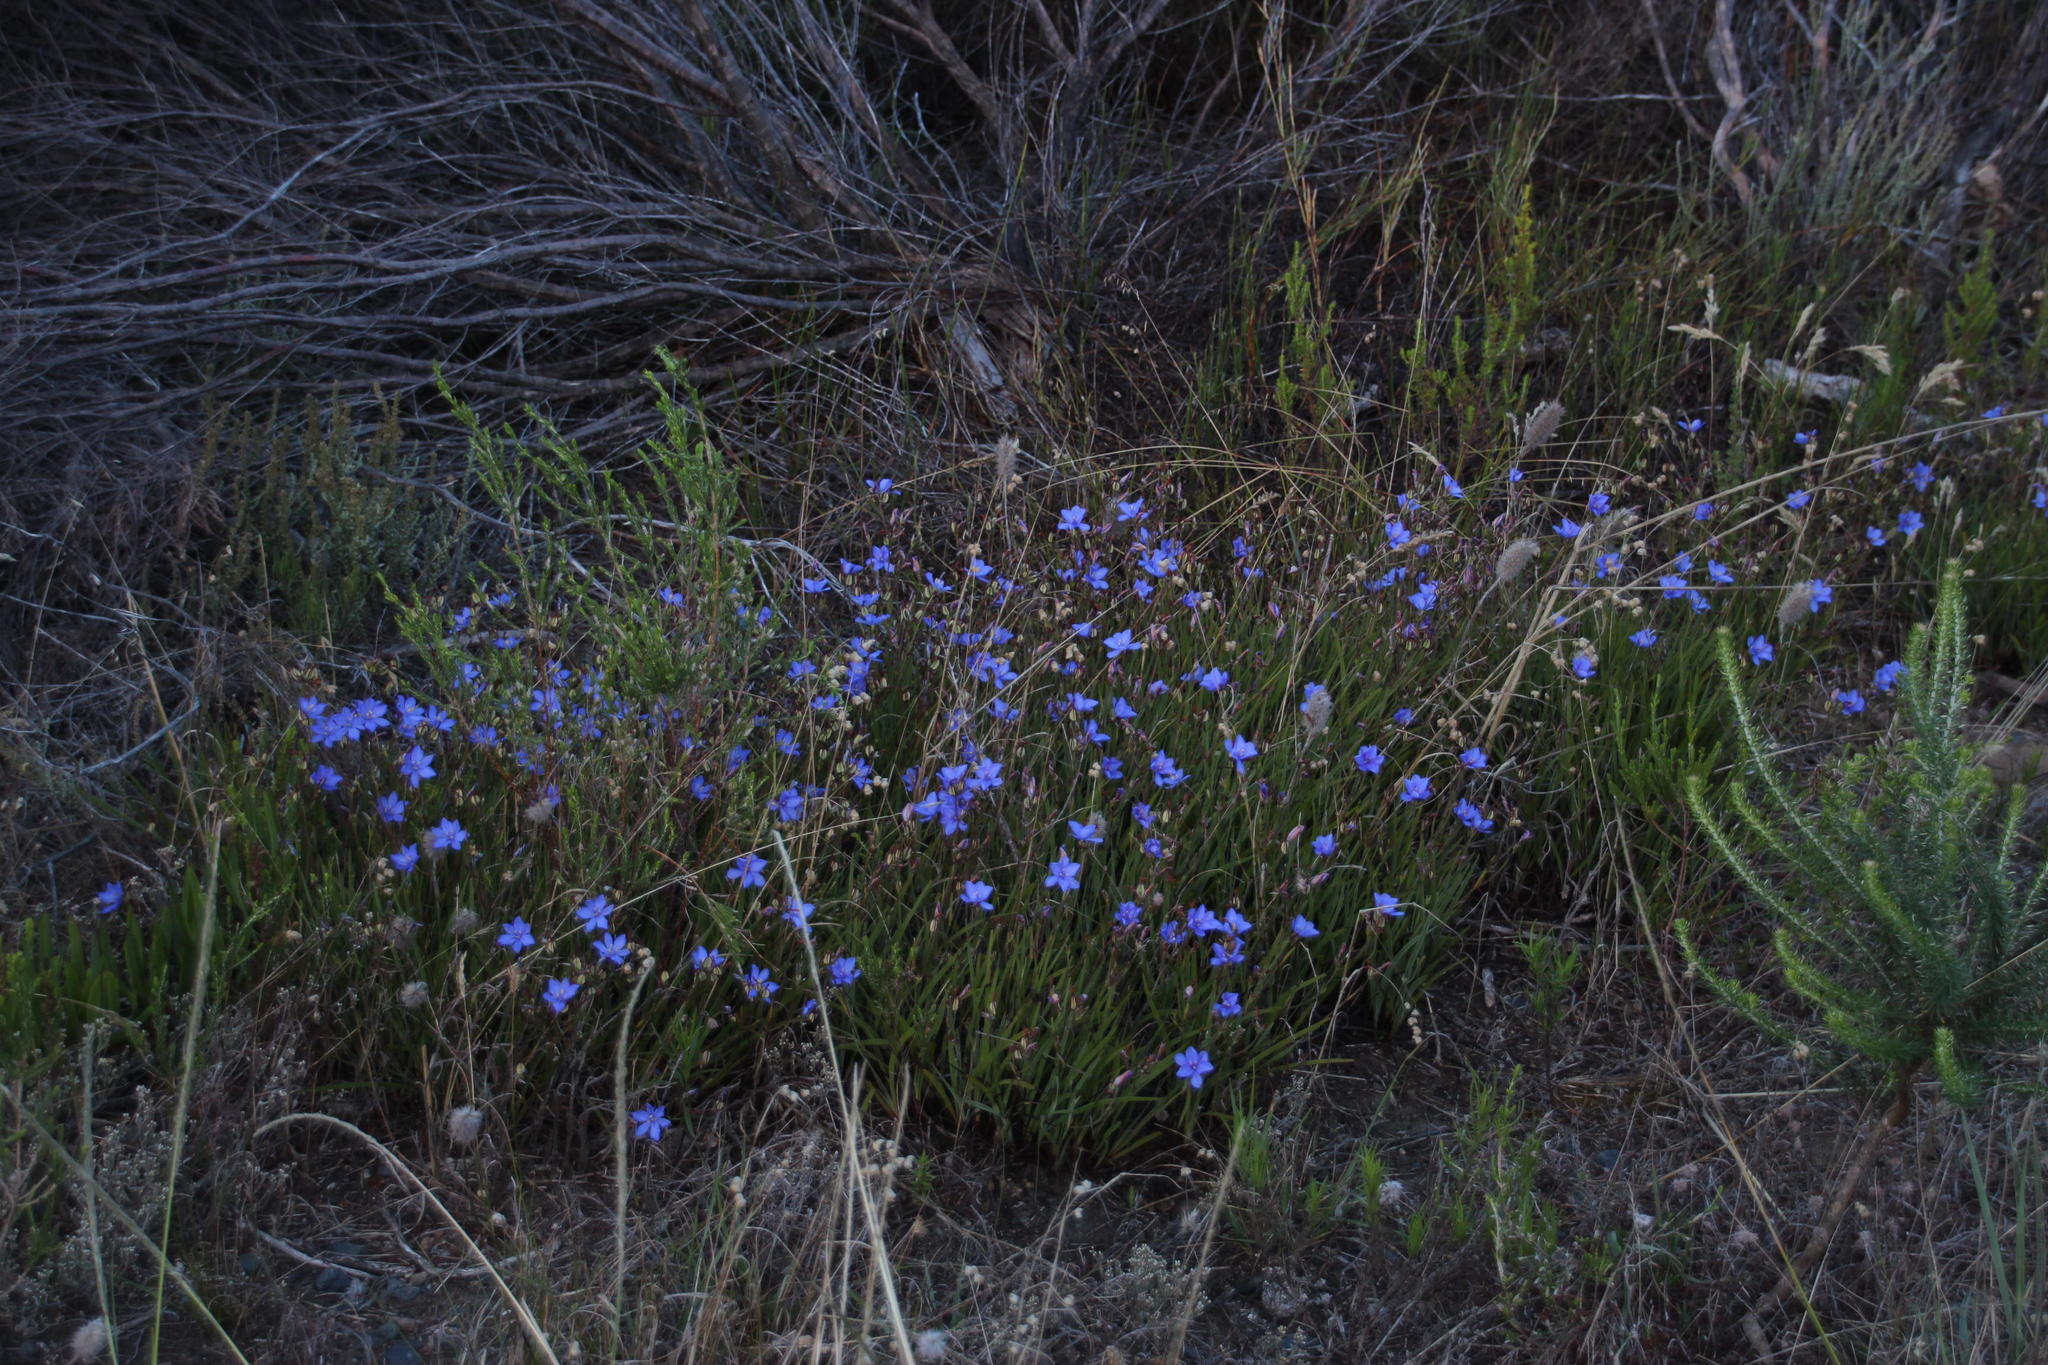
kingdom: Plantae
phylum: Tracheophyta
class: Liliopsida
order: Asparagales
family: Iridaceae
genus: Aristea
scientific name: Aristea africana
